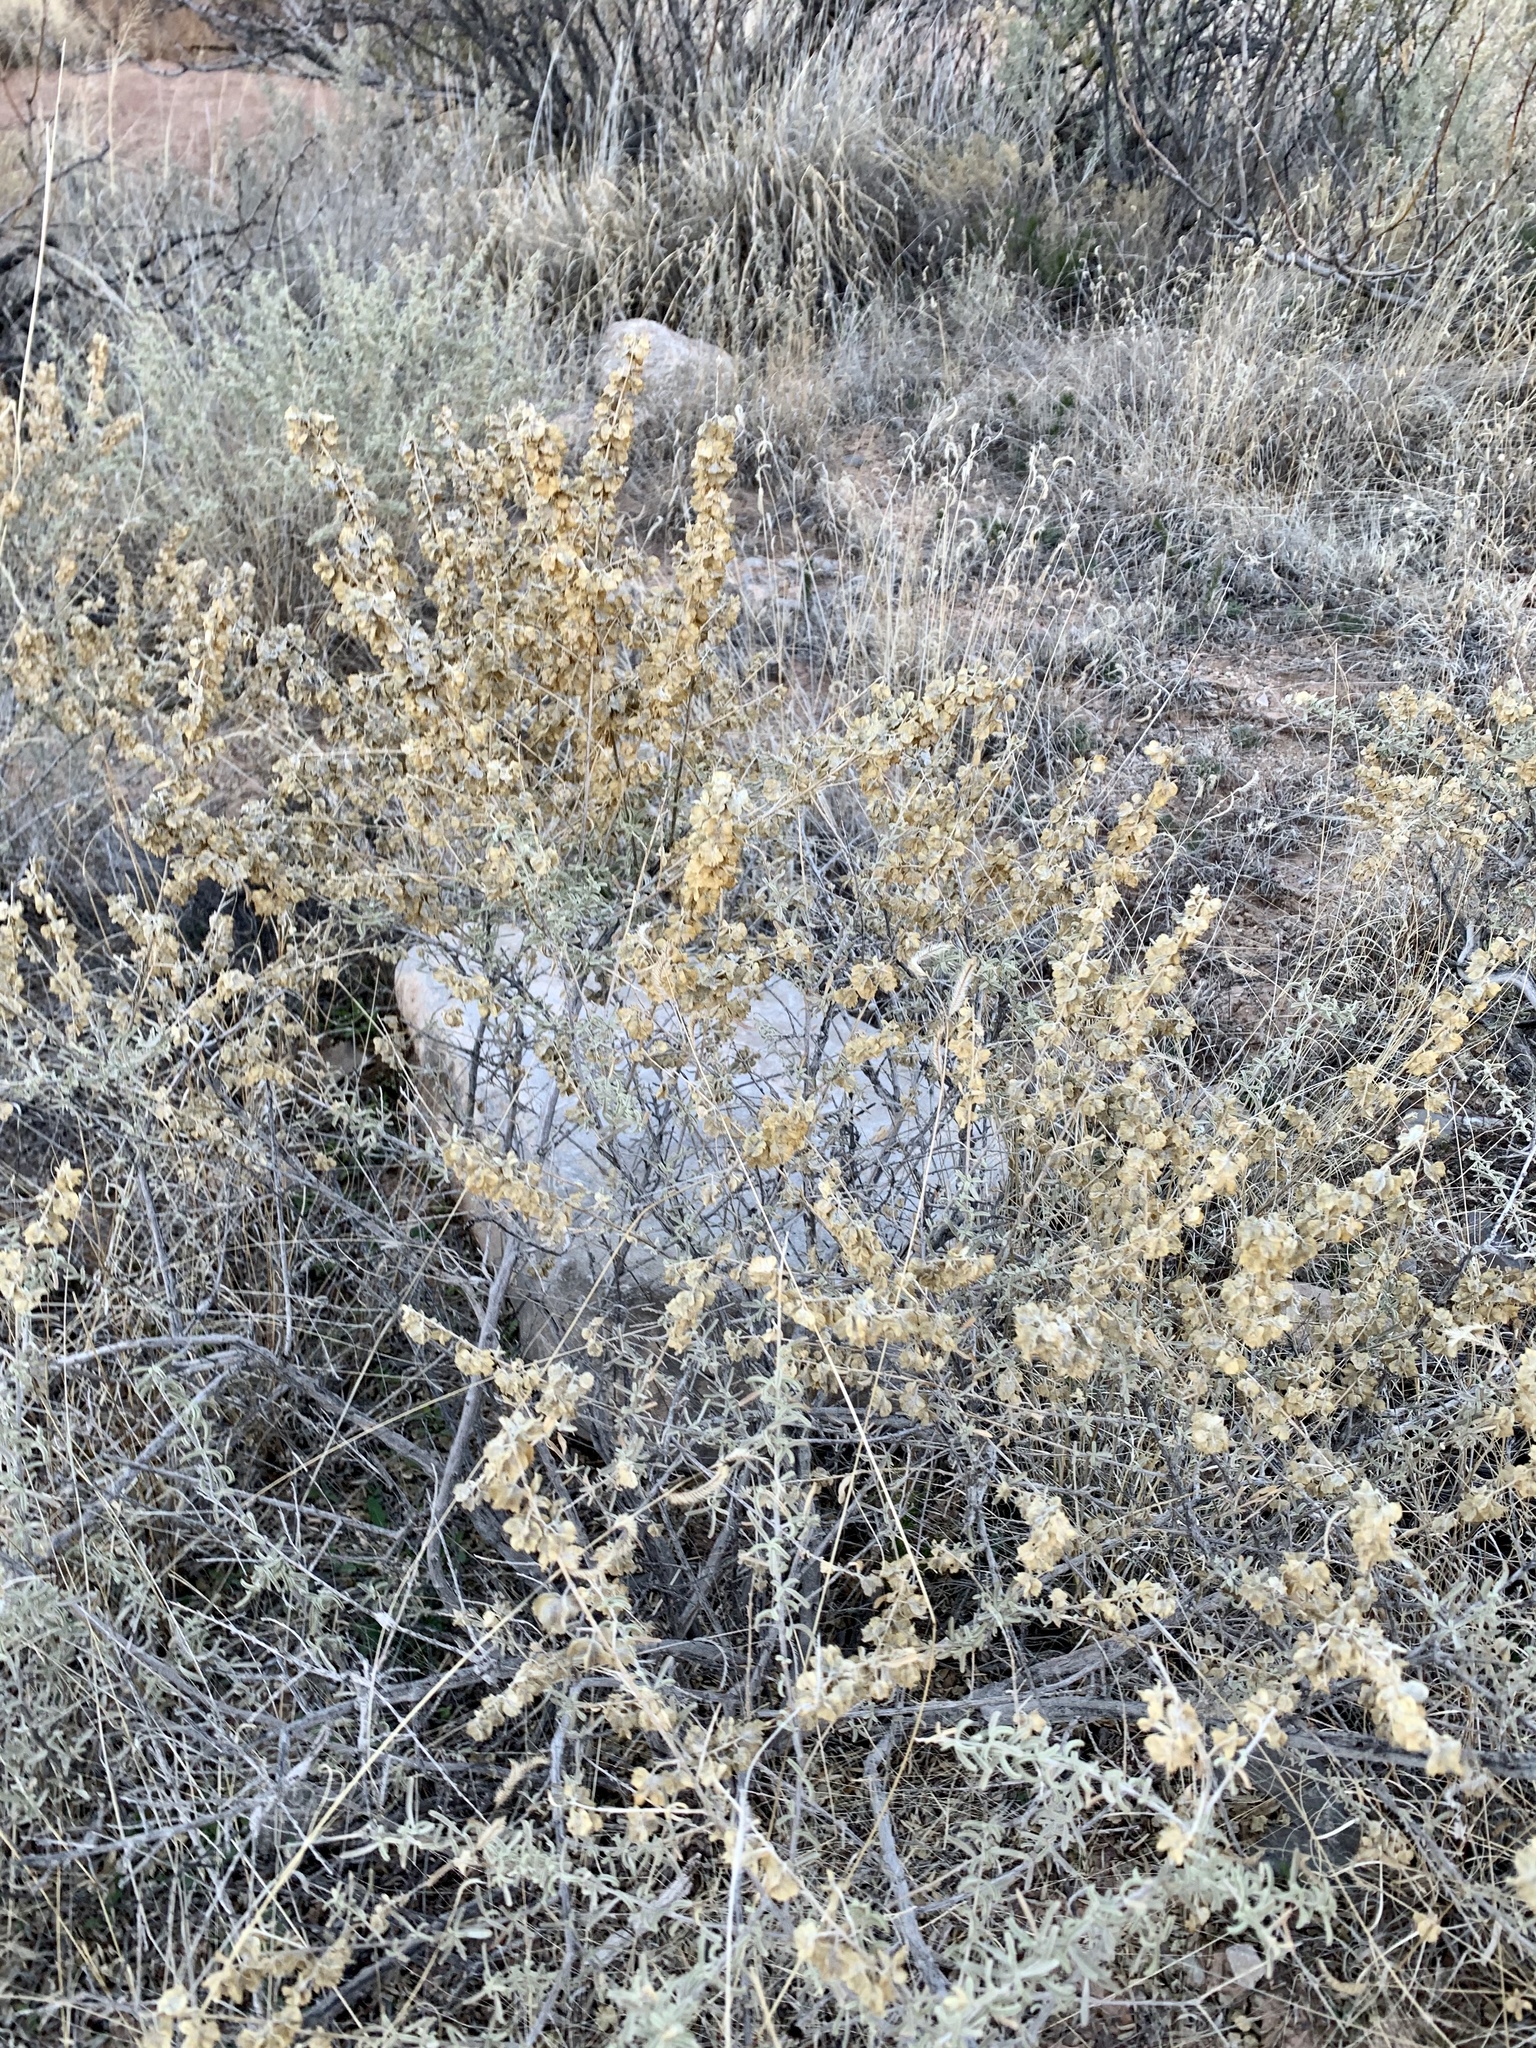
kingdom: Plantae
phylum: Tracheophyta
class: Magnoliopsida
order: Caryophyllales
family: Amaranthaceae
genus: Atriplex
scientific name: Atriplex canescens
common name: Four-wing saltbush
